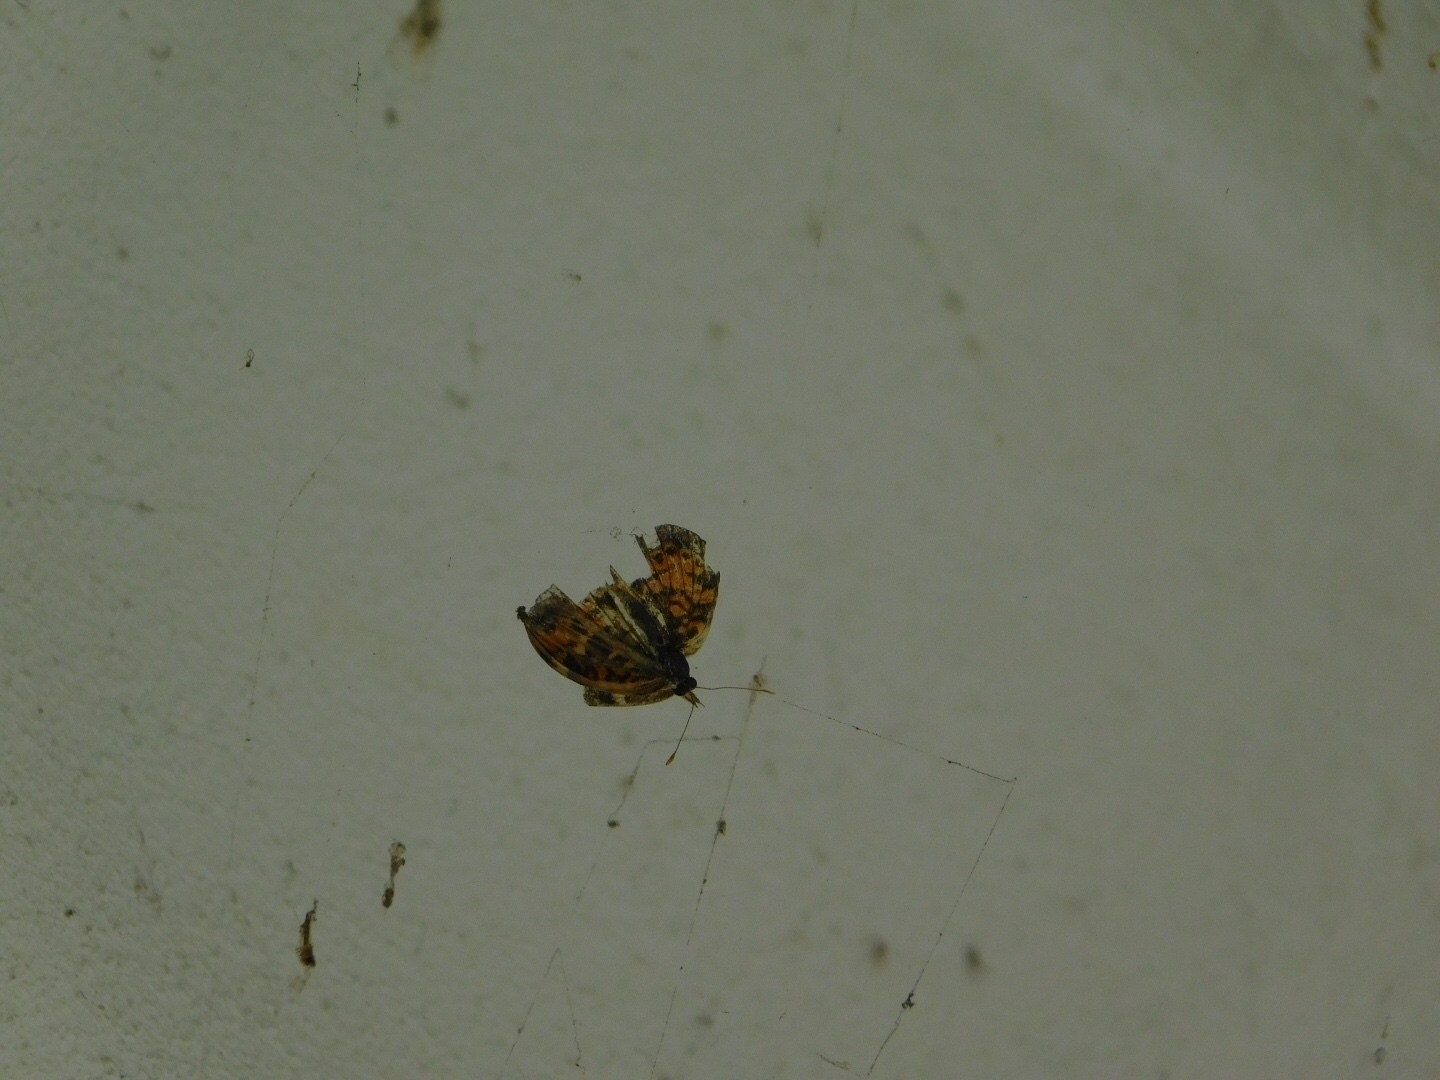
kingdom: Animalia
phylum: Arthropoda
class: Insecta
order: Lepidoptera
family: Nymphalidae
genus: Phyciodes
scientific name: Phyciodes phaon
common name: Phaon crescent
